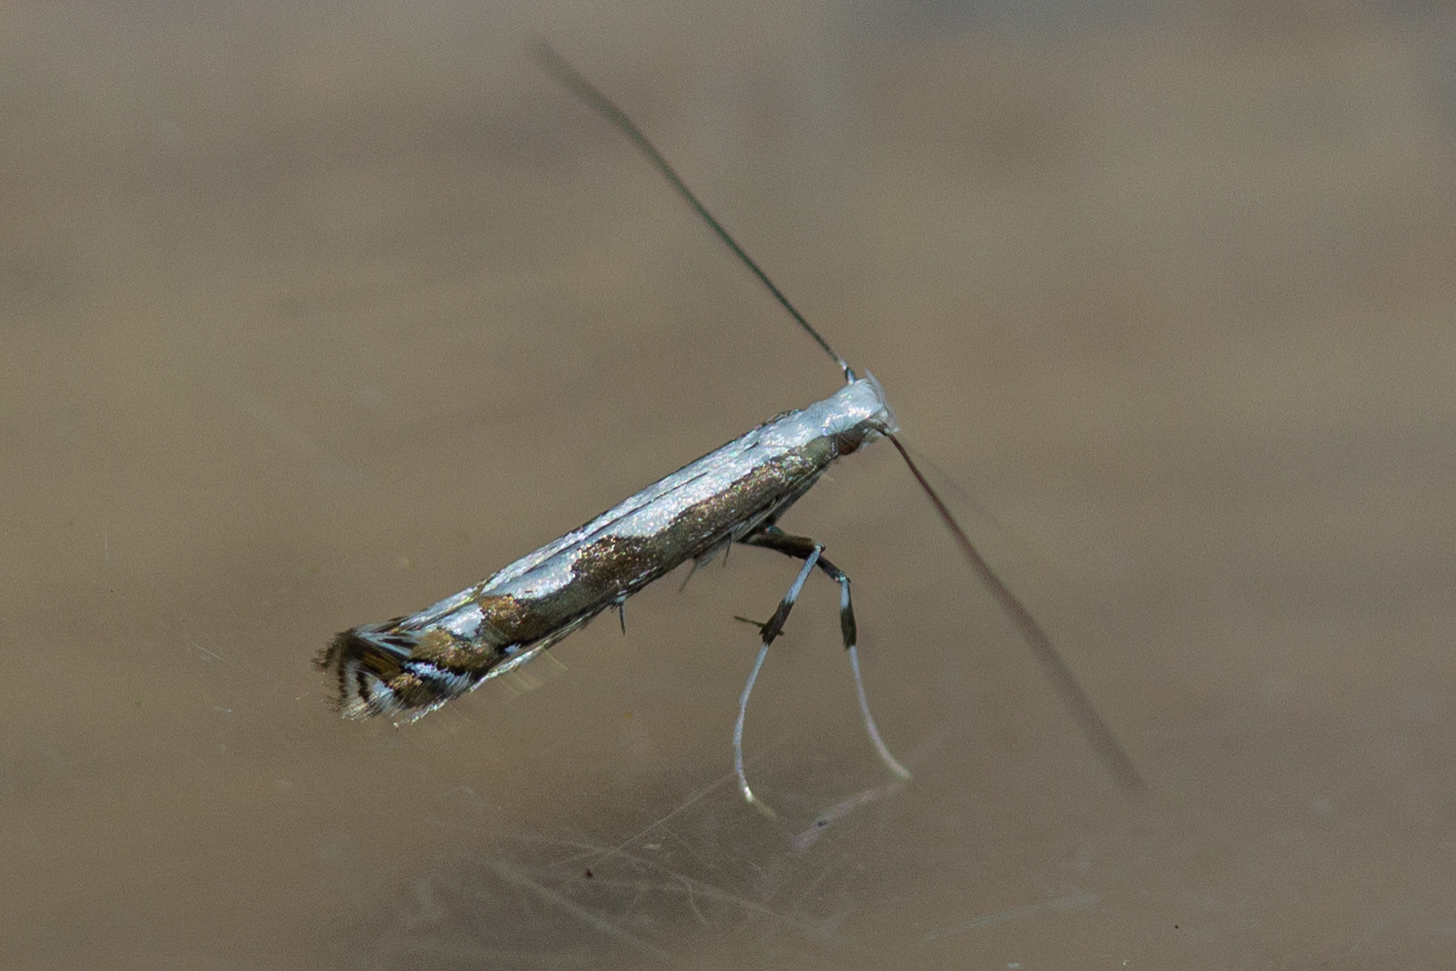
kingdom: Animalia
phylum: Arthropoda
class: Insecta
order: Lepidoptera
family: Gracillariidae
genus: Dialectica
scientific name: Dialectica scalariella
